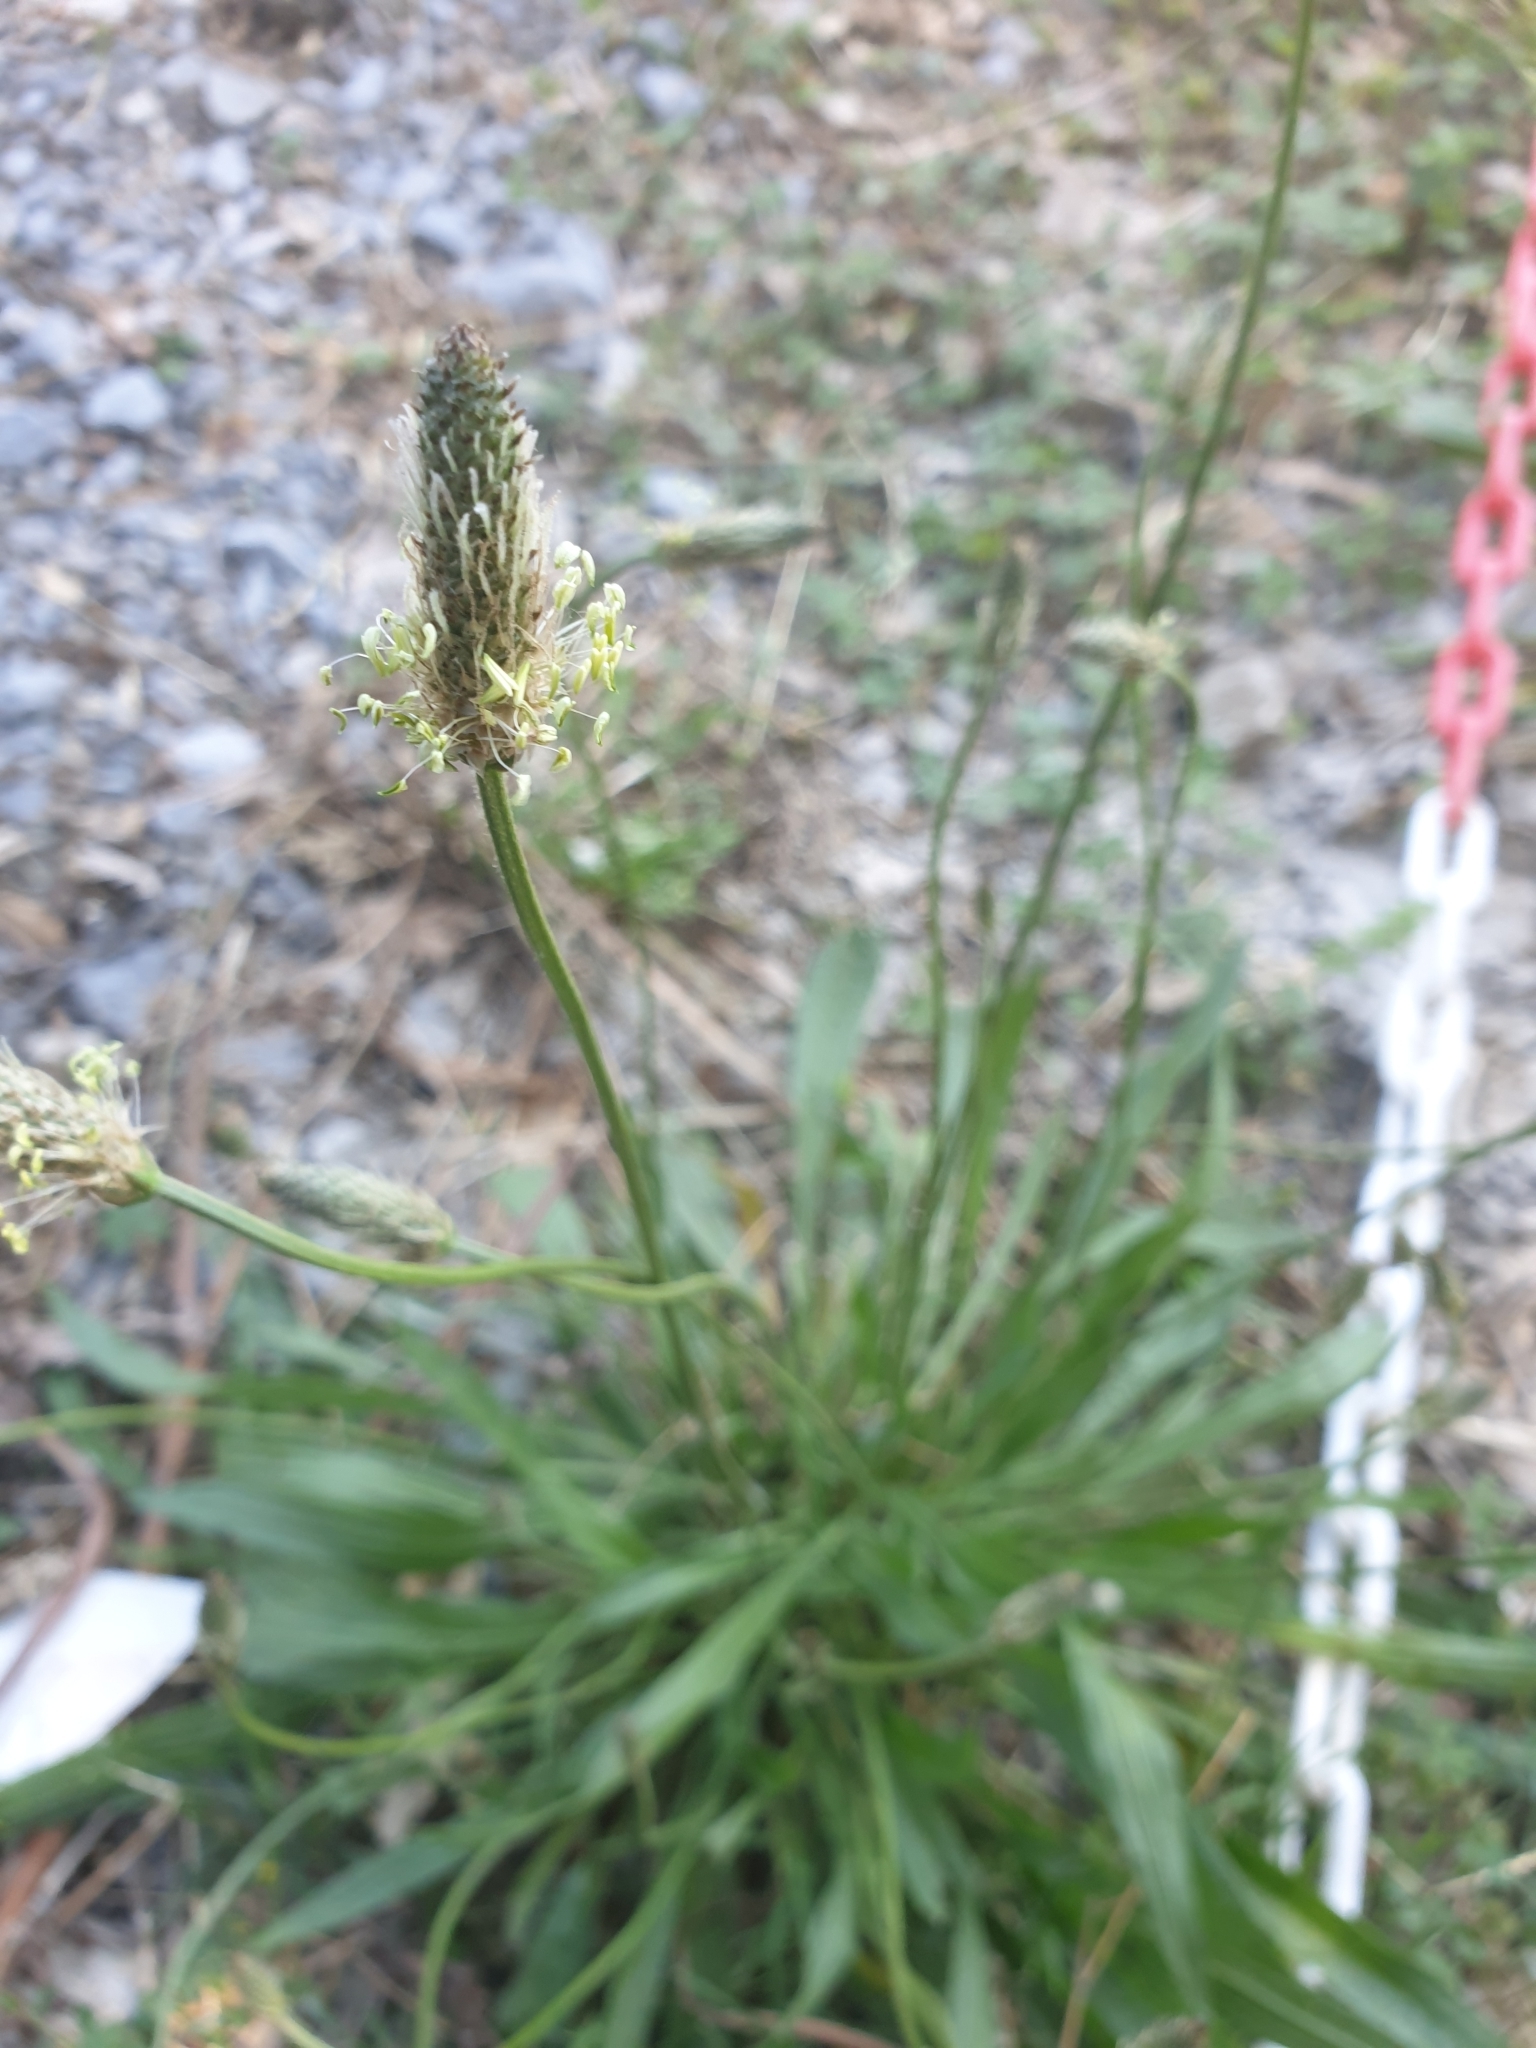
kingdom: Plantae
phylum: Tracheophyta
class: Magnoliopsida
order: Lamiales
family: Plantaginaceae
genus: Plantago
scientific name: Plantago lanceolata
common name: Ribwort plantain
